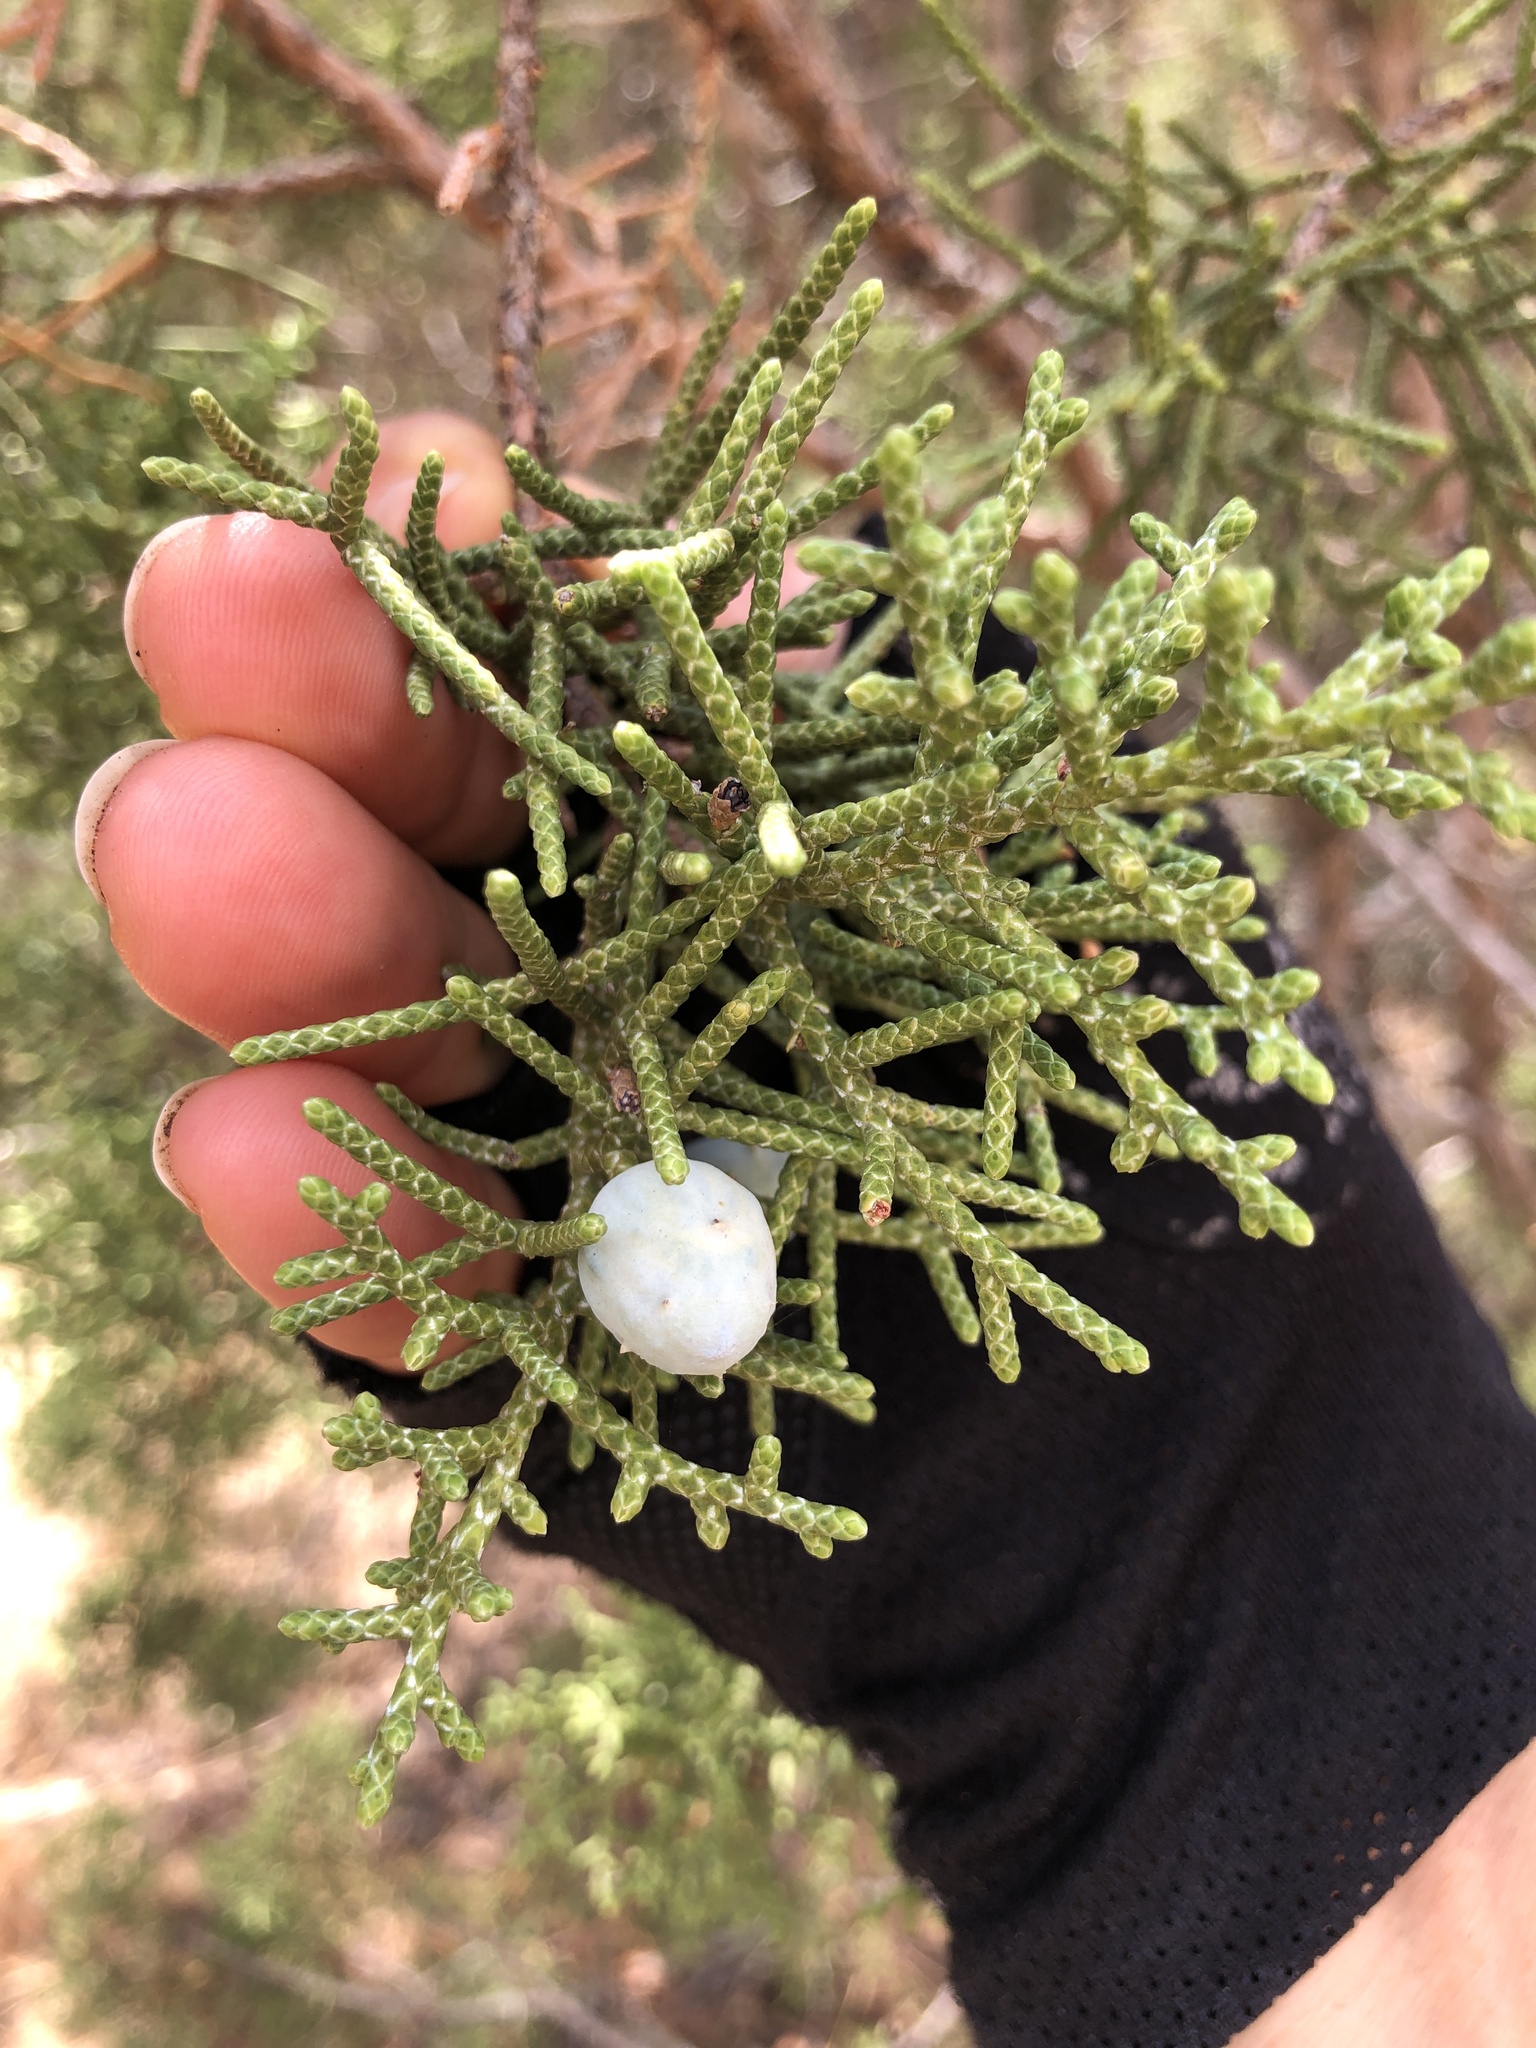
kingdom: Plantae
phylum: Tracheophyta
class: Pinopsida
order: Pinales
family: Cupressaceae
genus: Juniperus
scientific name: Juniperus californica
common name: California juniper
